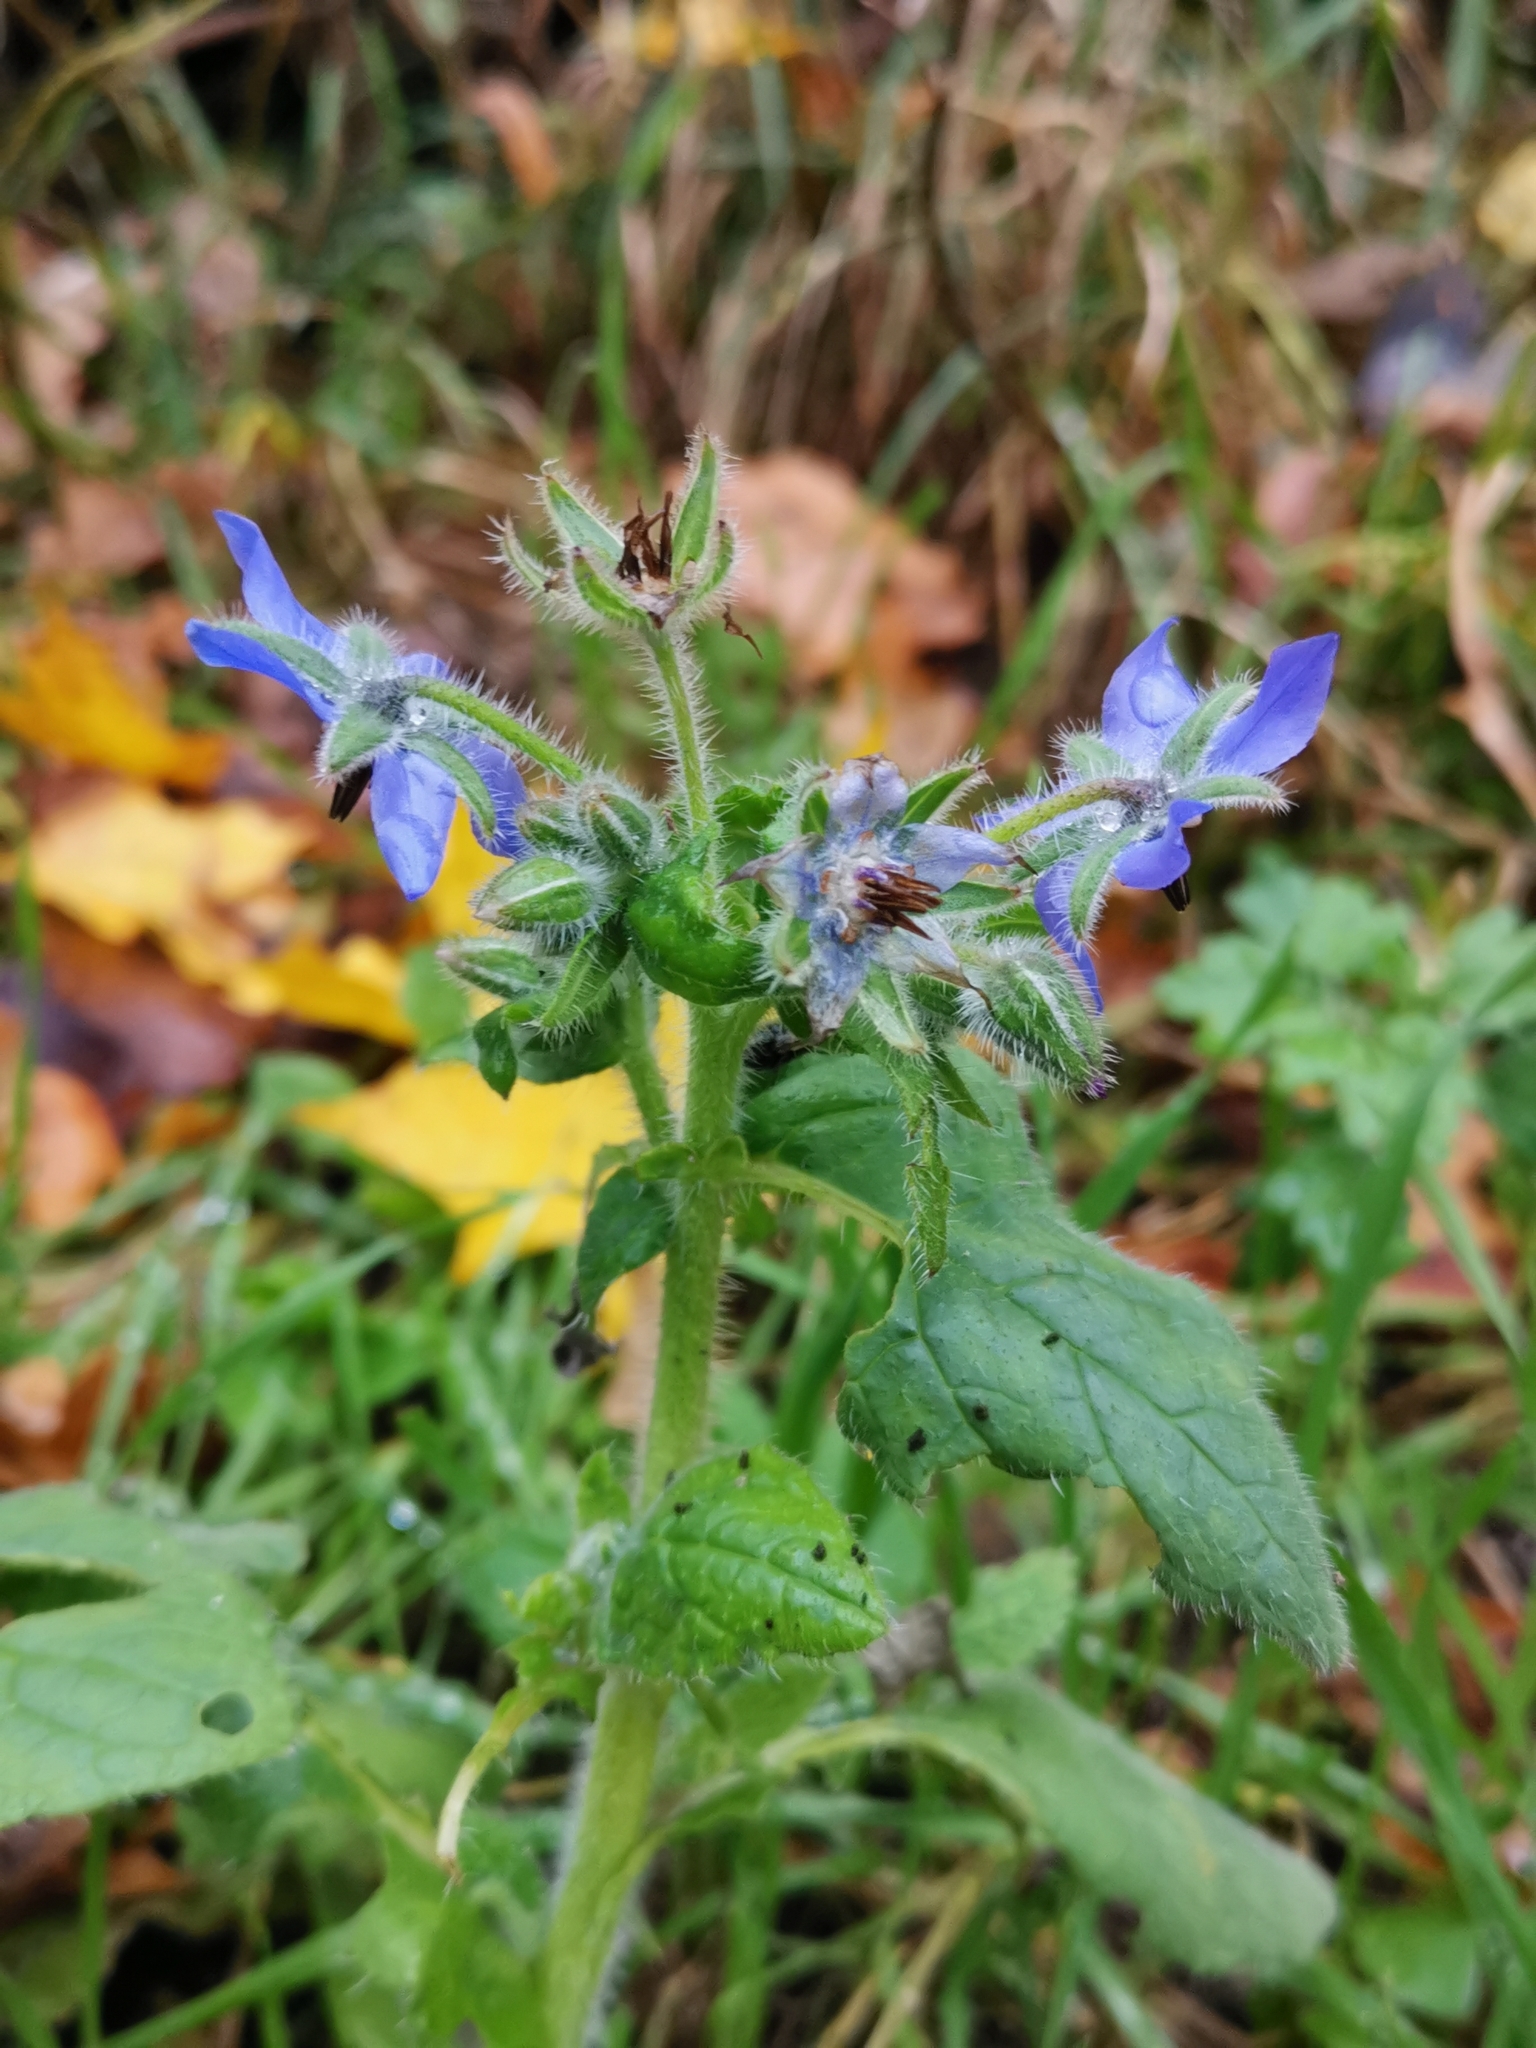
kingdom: Plantae
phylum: Tracheophyta
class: Magnoliopsida
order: Boraginales
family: Boraginaceae
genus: Borago
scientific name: Borago officinalis
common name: Borage
